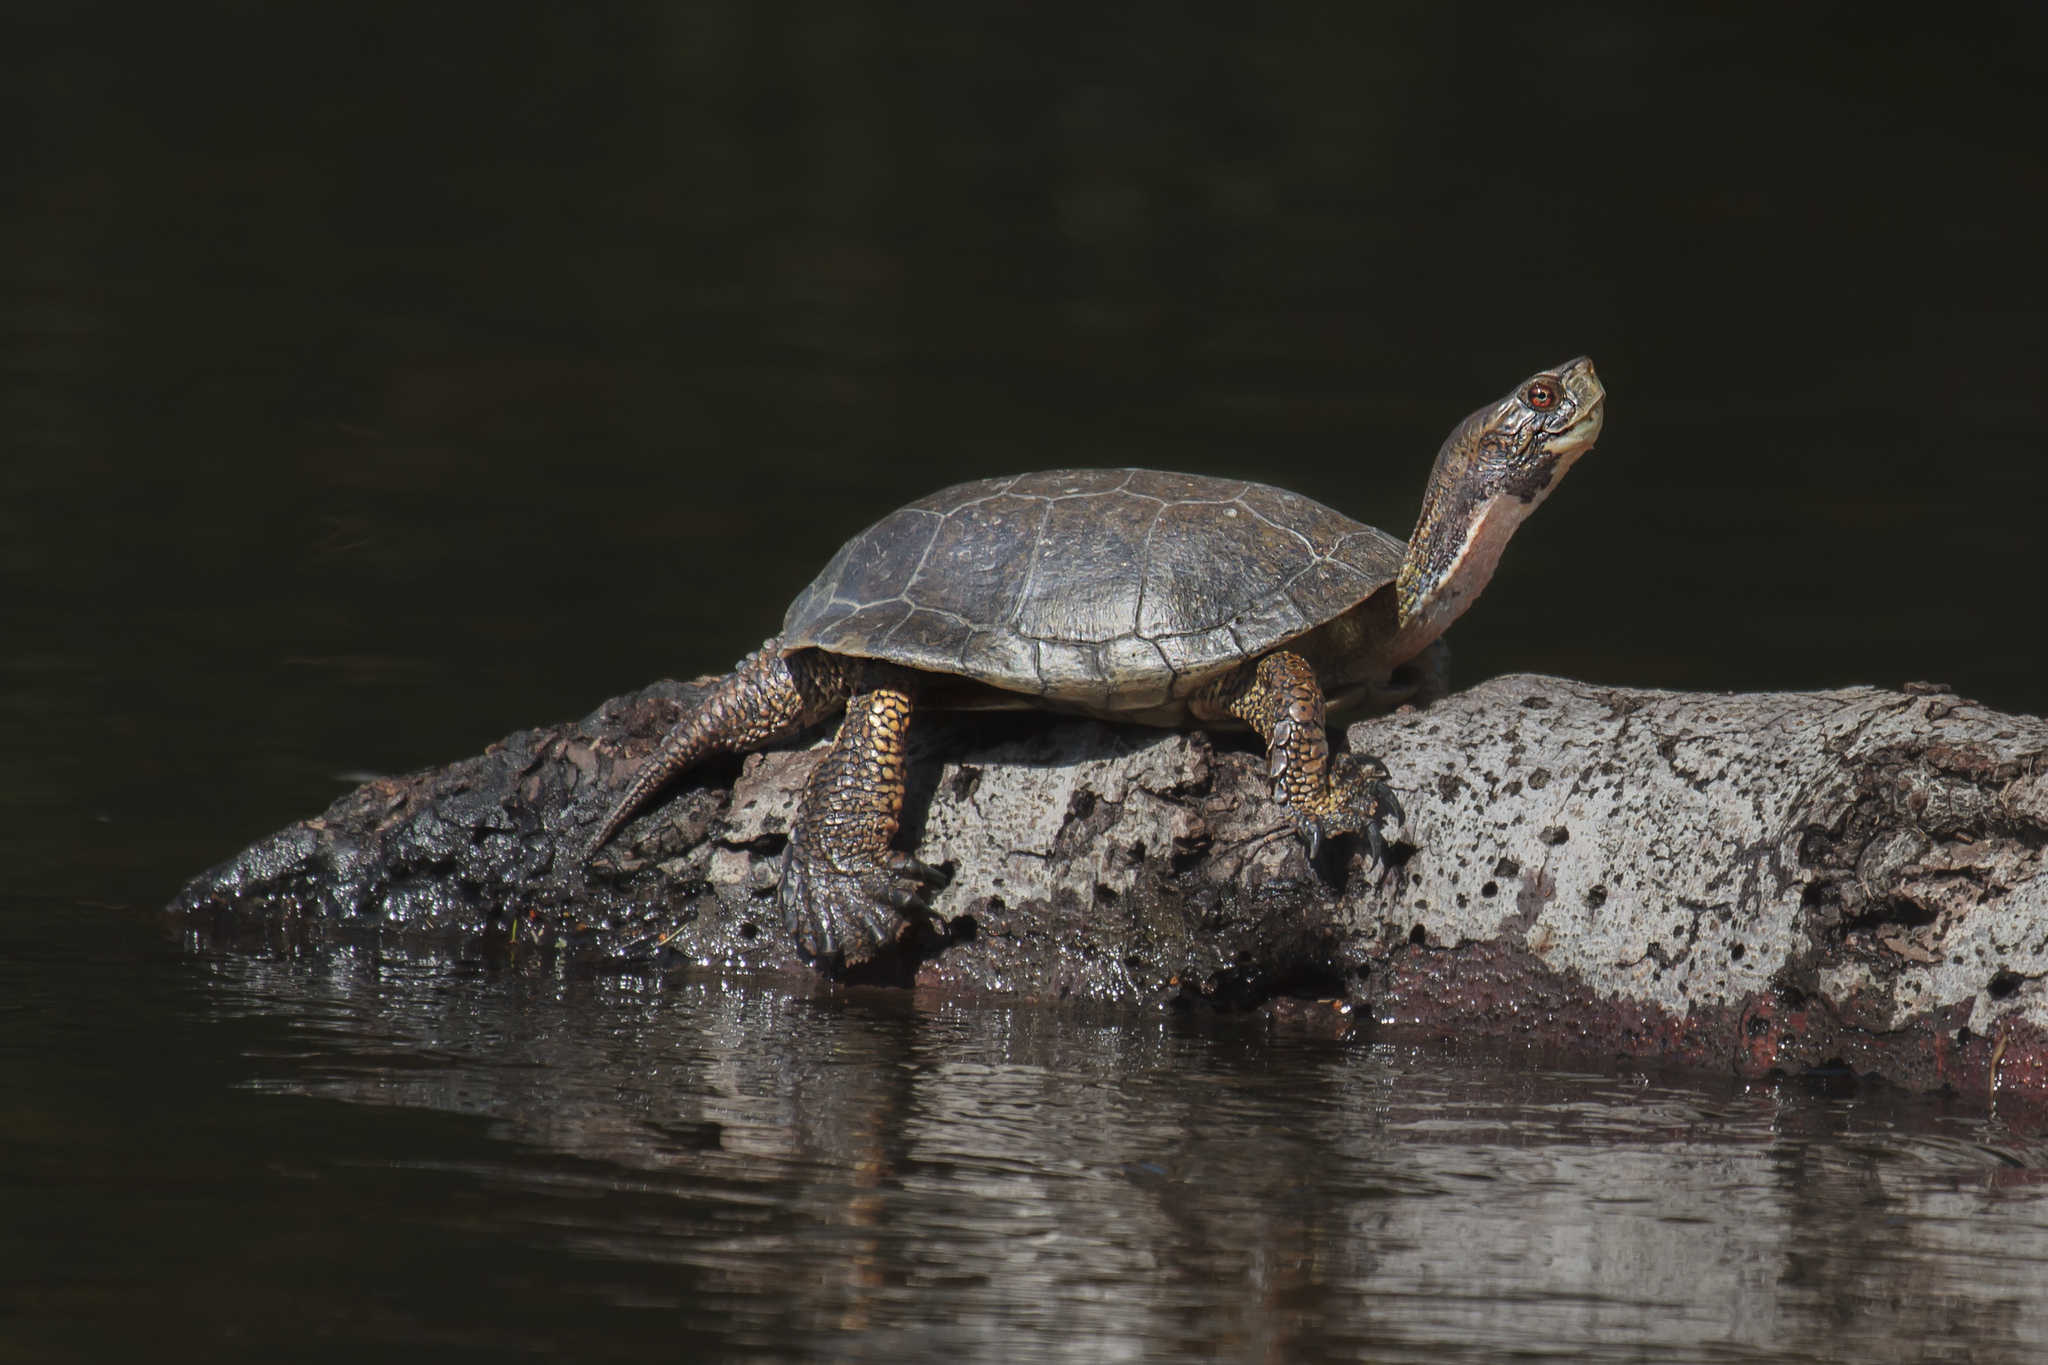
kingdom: Animalia
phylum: Chordata
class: Testudines
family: Emydidae
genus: Actinemys
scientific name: Actinemys marmorata
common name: Western pond turtle
